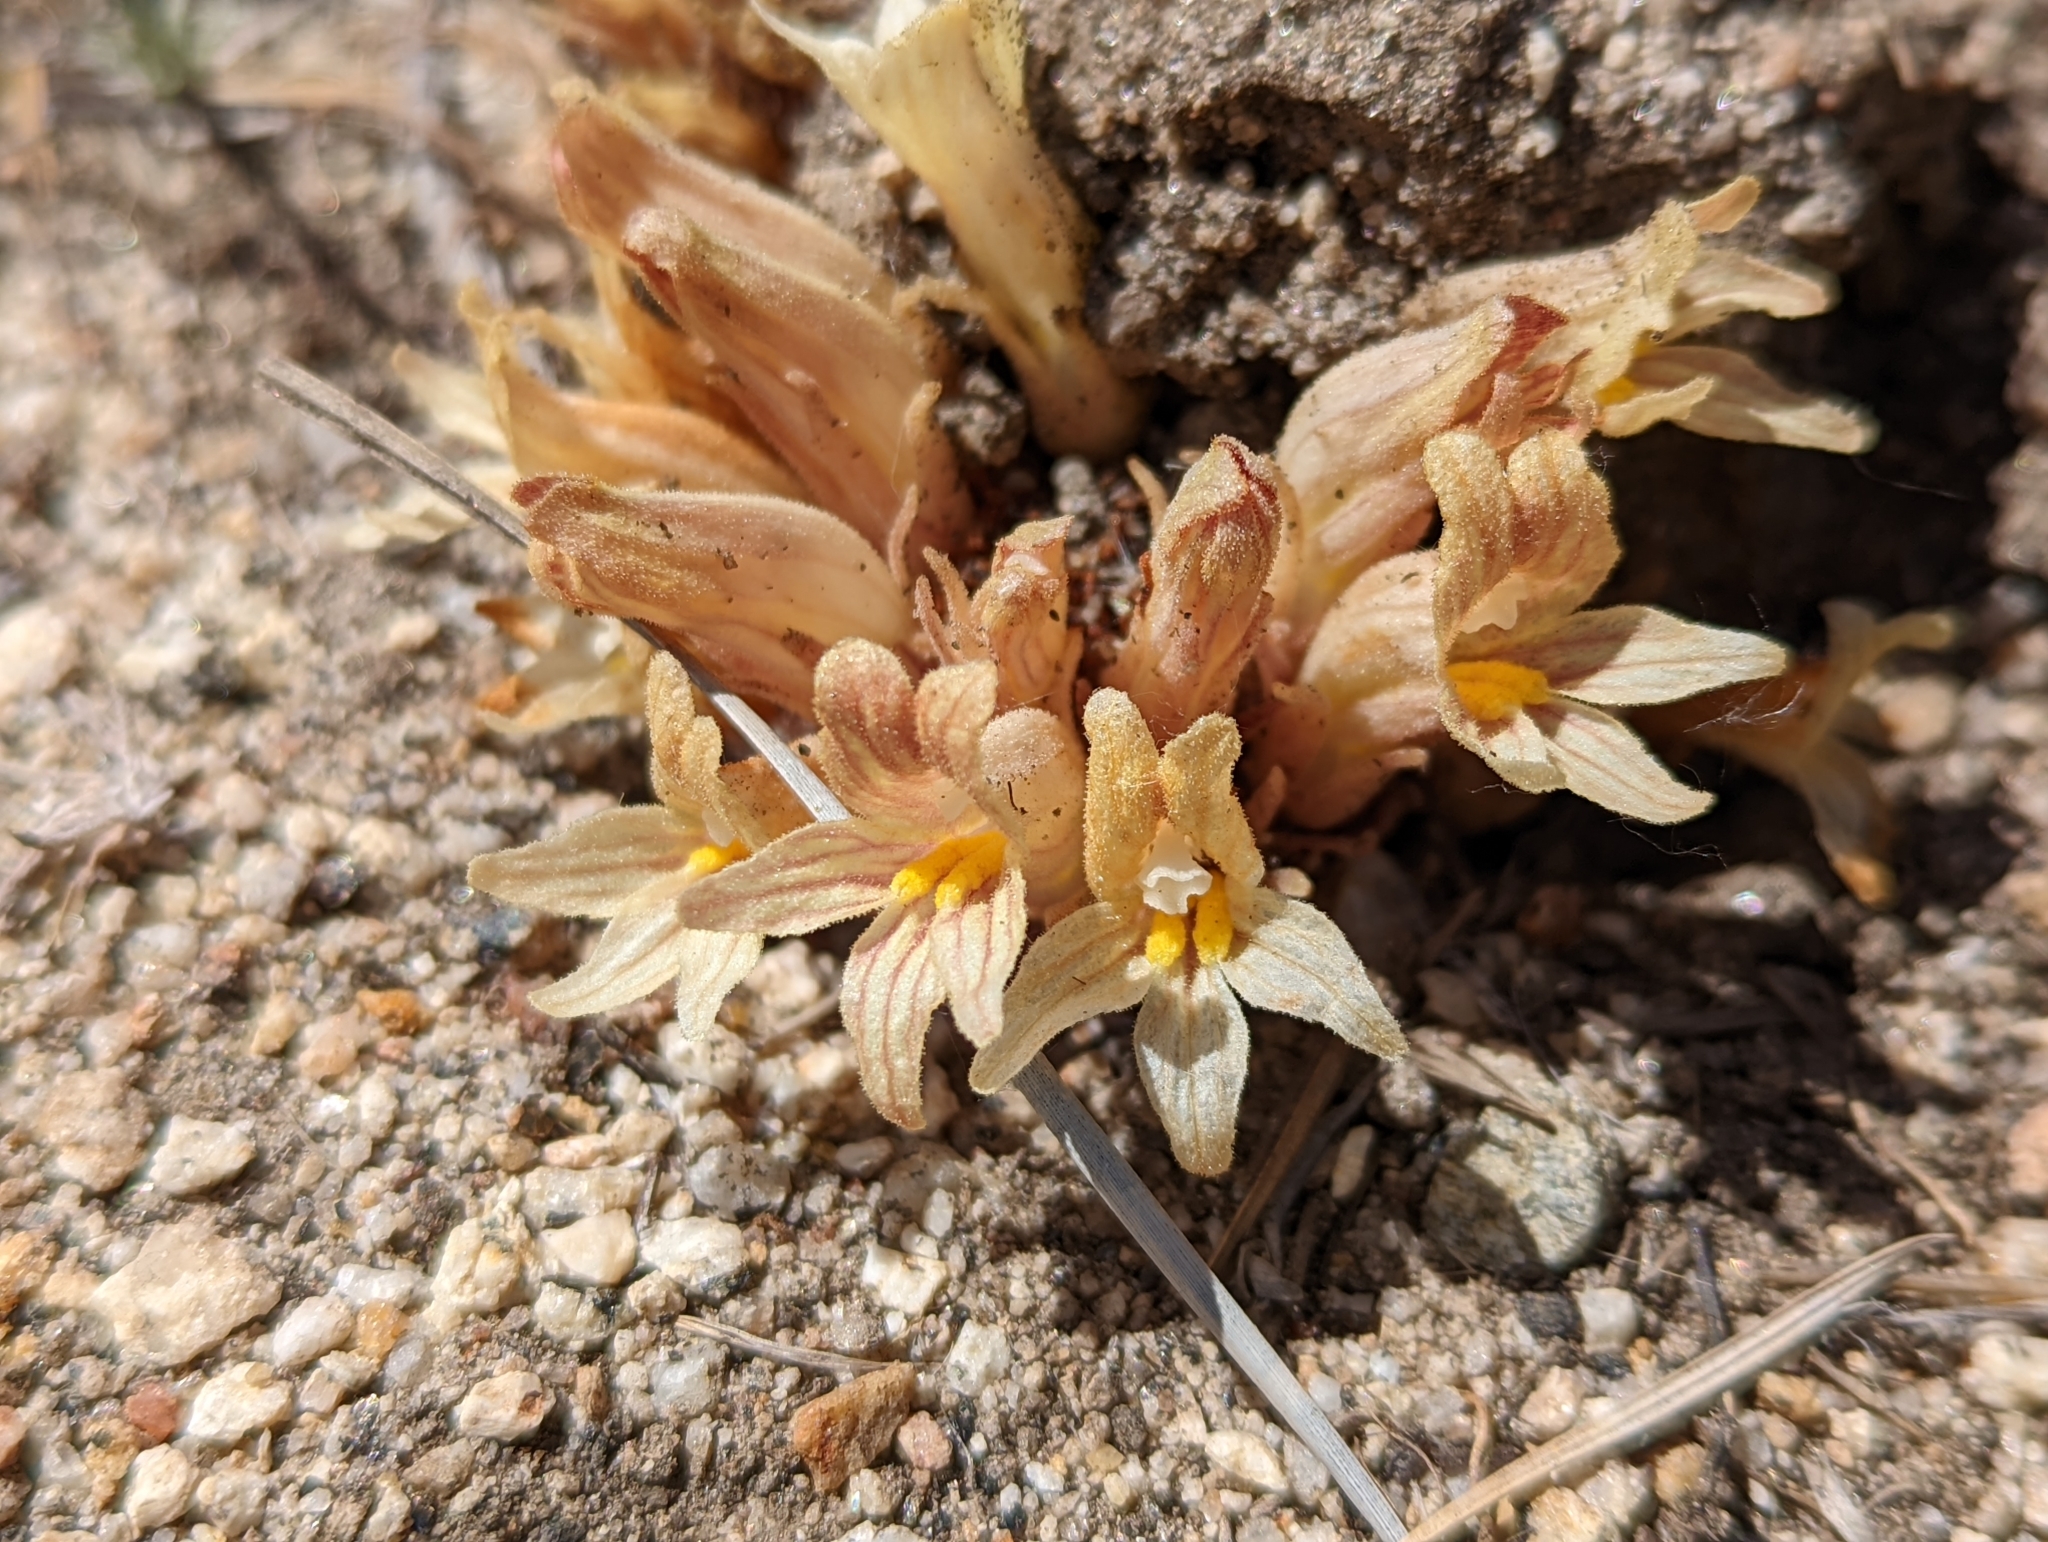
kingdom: Plantae
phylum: Tracheophyta
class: Magnoliopsida
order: Lamiales
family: Orobanchaceae
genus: Aphyllon
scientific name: Aphyllon californicum
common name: California broomrape
